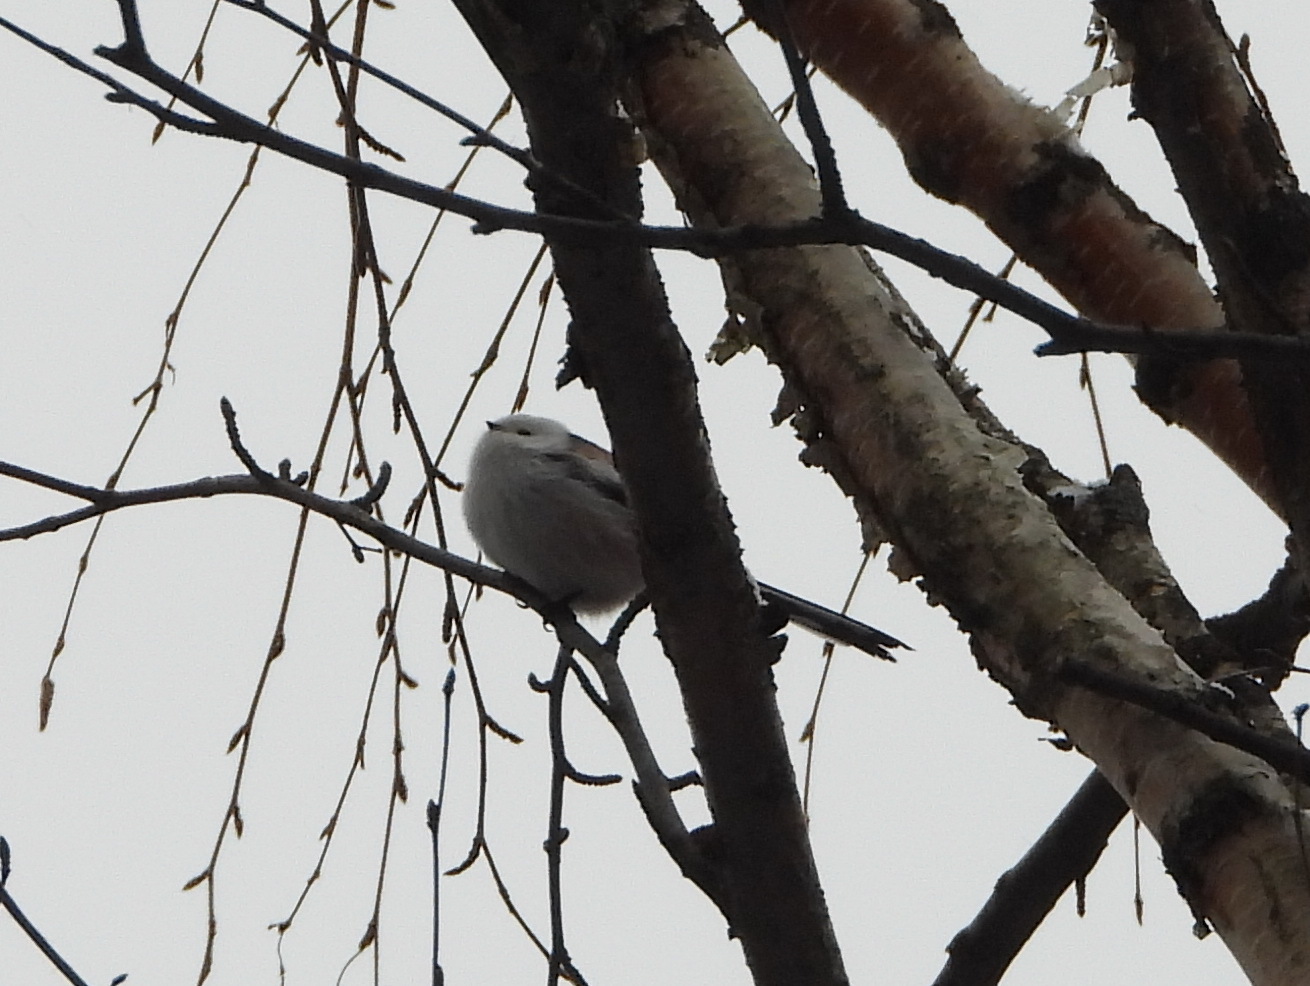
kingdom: Animalia
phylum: Chordata
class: Aves
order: Passeriformes
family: Aegithalidae
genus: Aegithalos
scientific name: Aegithalos caudatus
